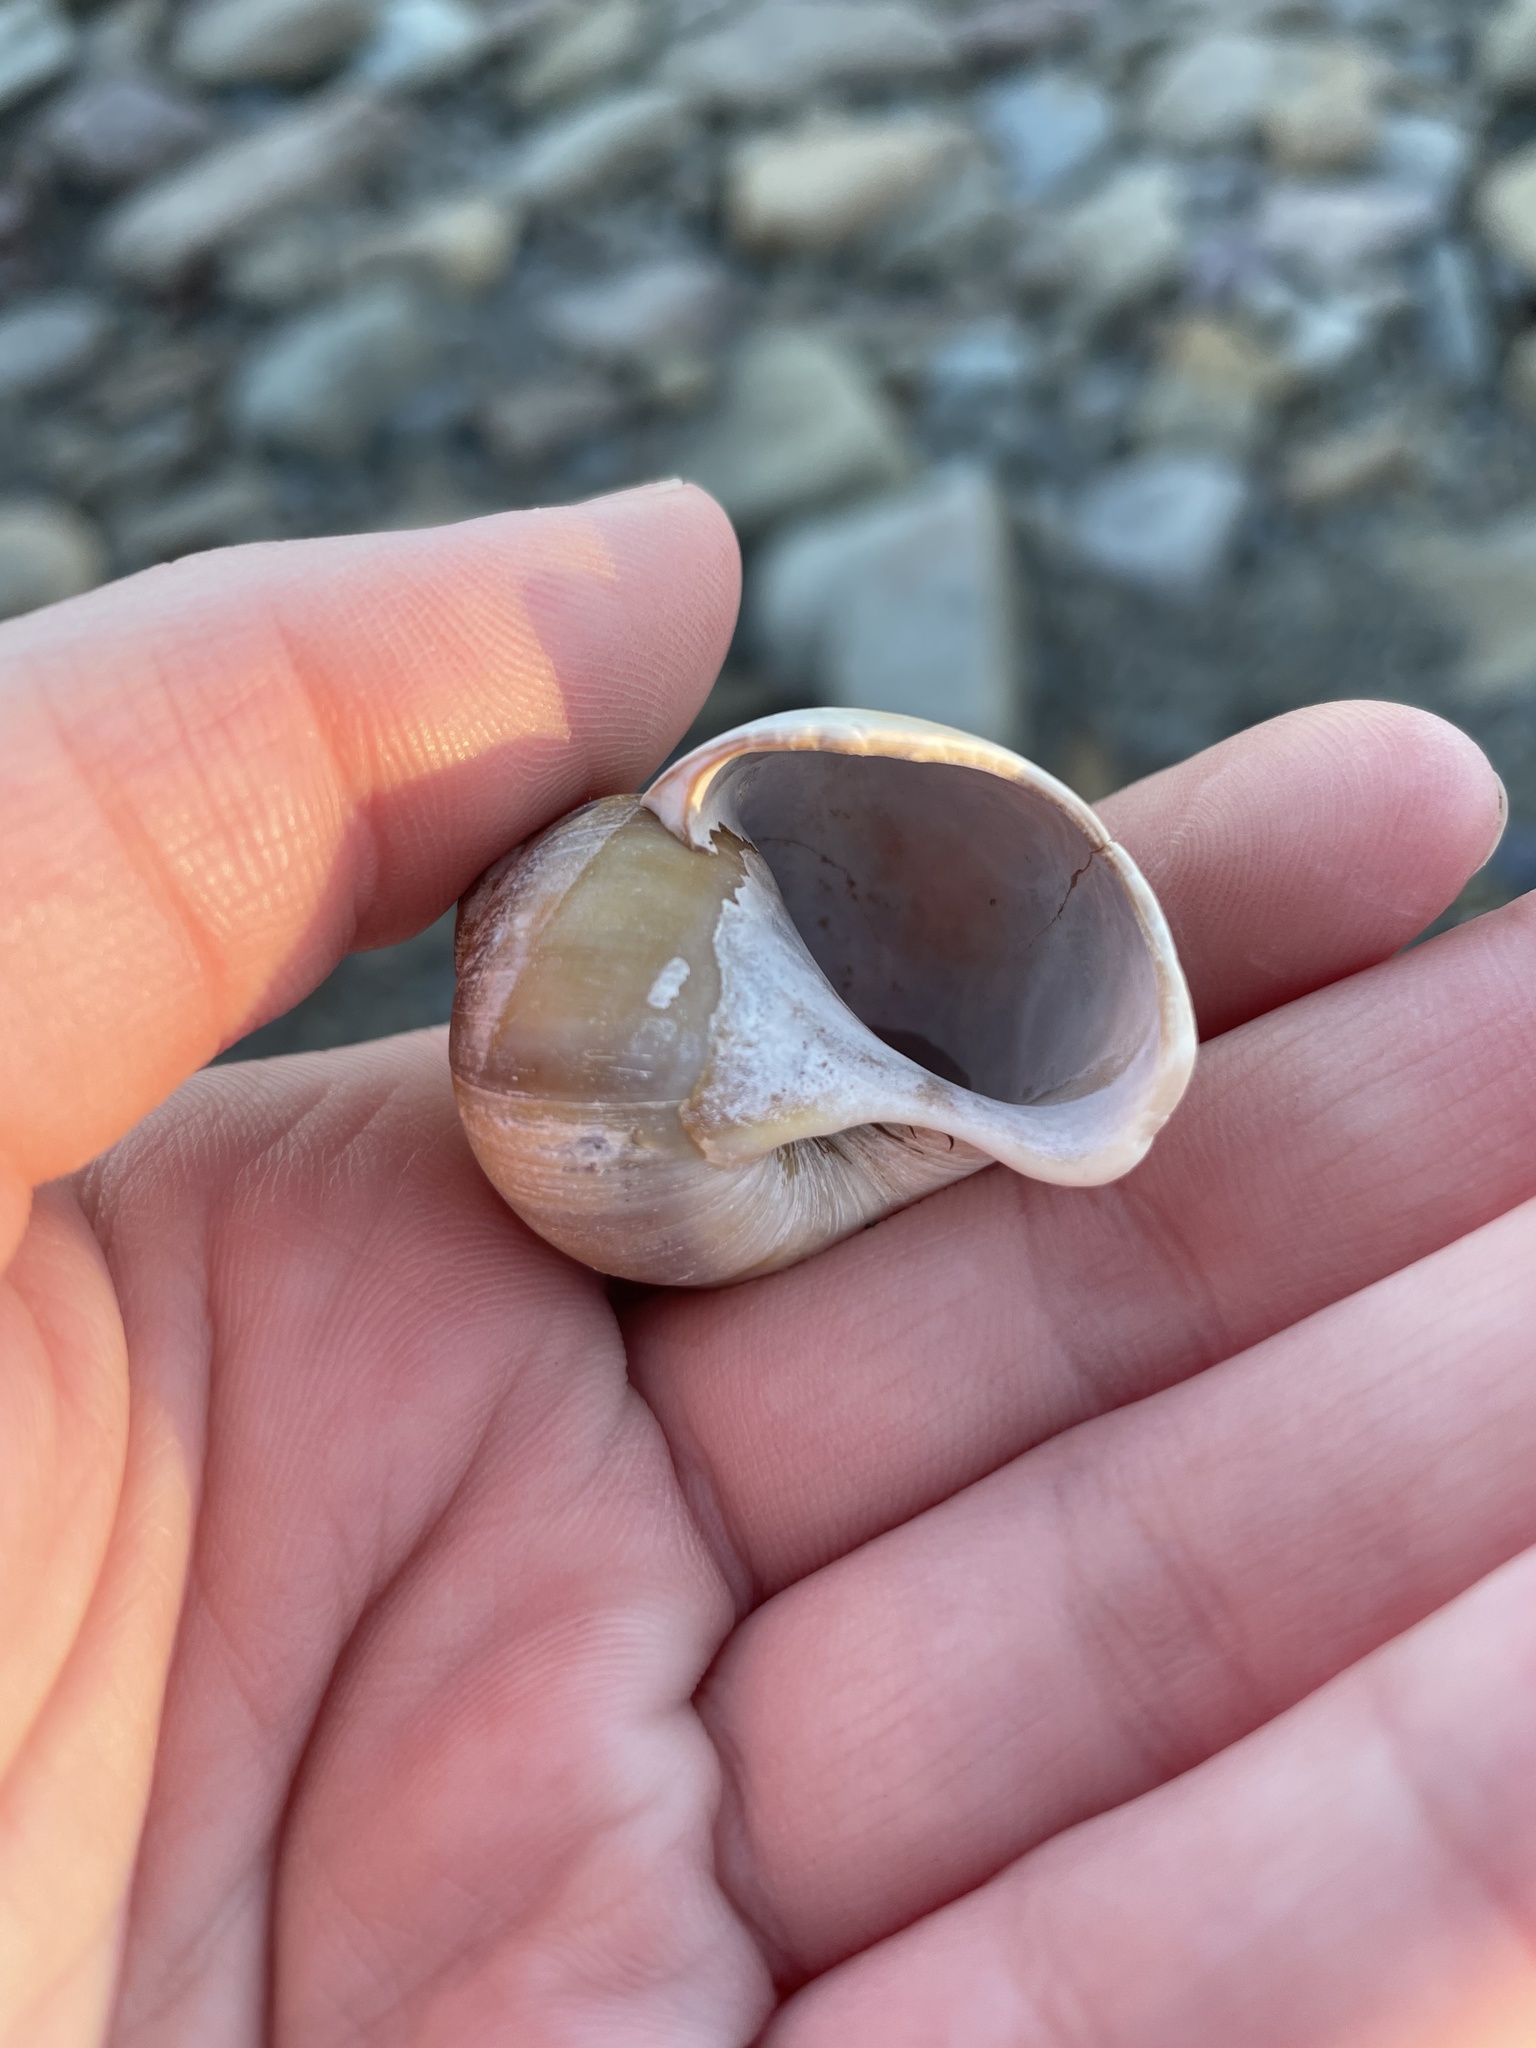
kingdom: Animalia
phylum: Mollusca
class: Gastropoda
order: Littorinimorpha
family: Naticidae
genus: Euspira
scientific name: Euspira heros
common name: Common northern moonsnail
